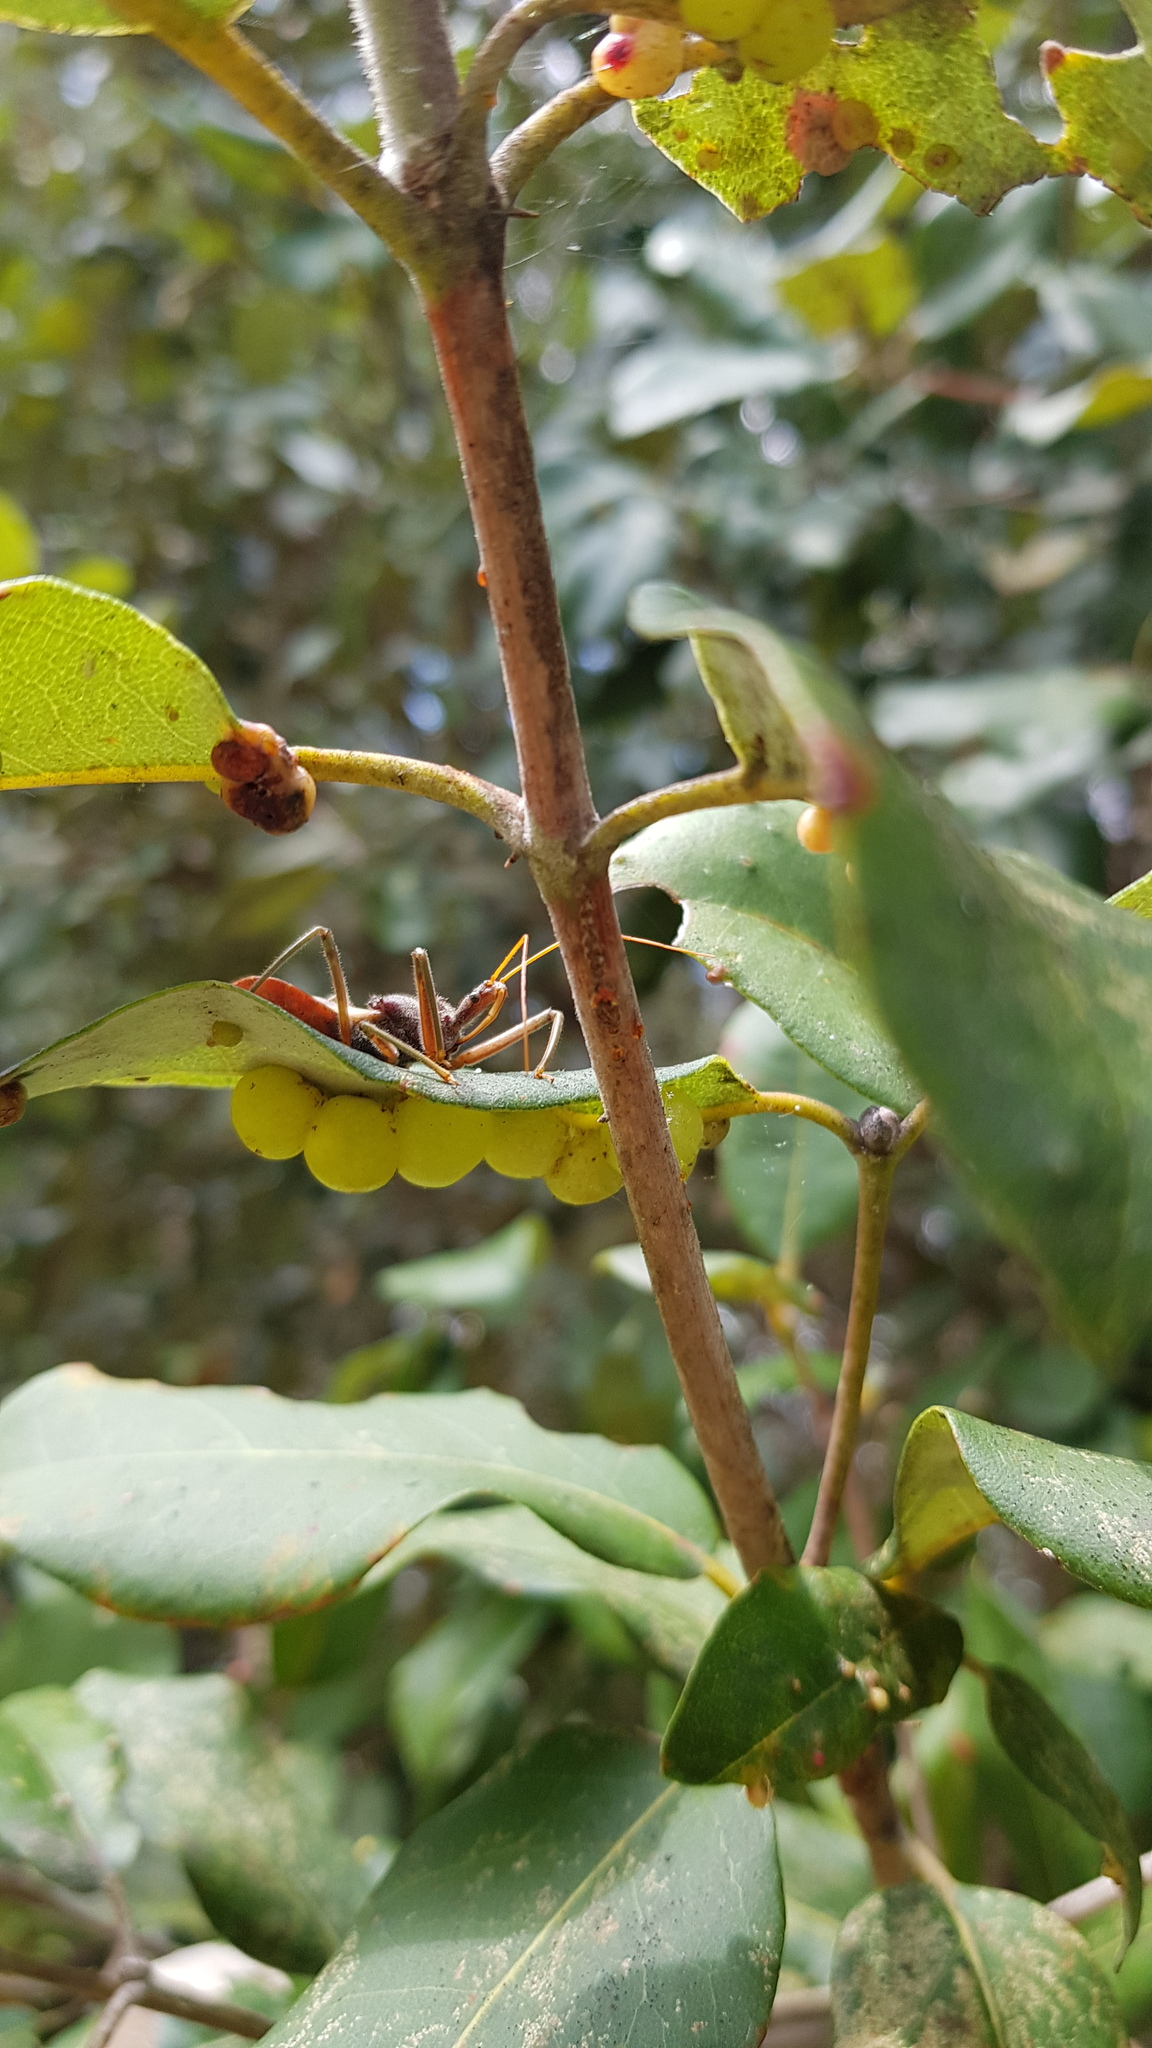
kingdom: Animalia
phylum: Arthropoda
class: Insecta
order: Hemiptera
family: Reduviidae
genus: Pristhesancus
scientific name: Pristhesancus plagipennis
